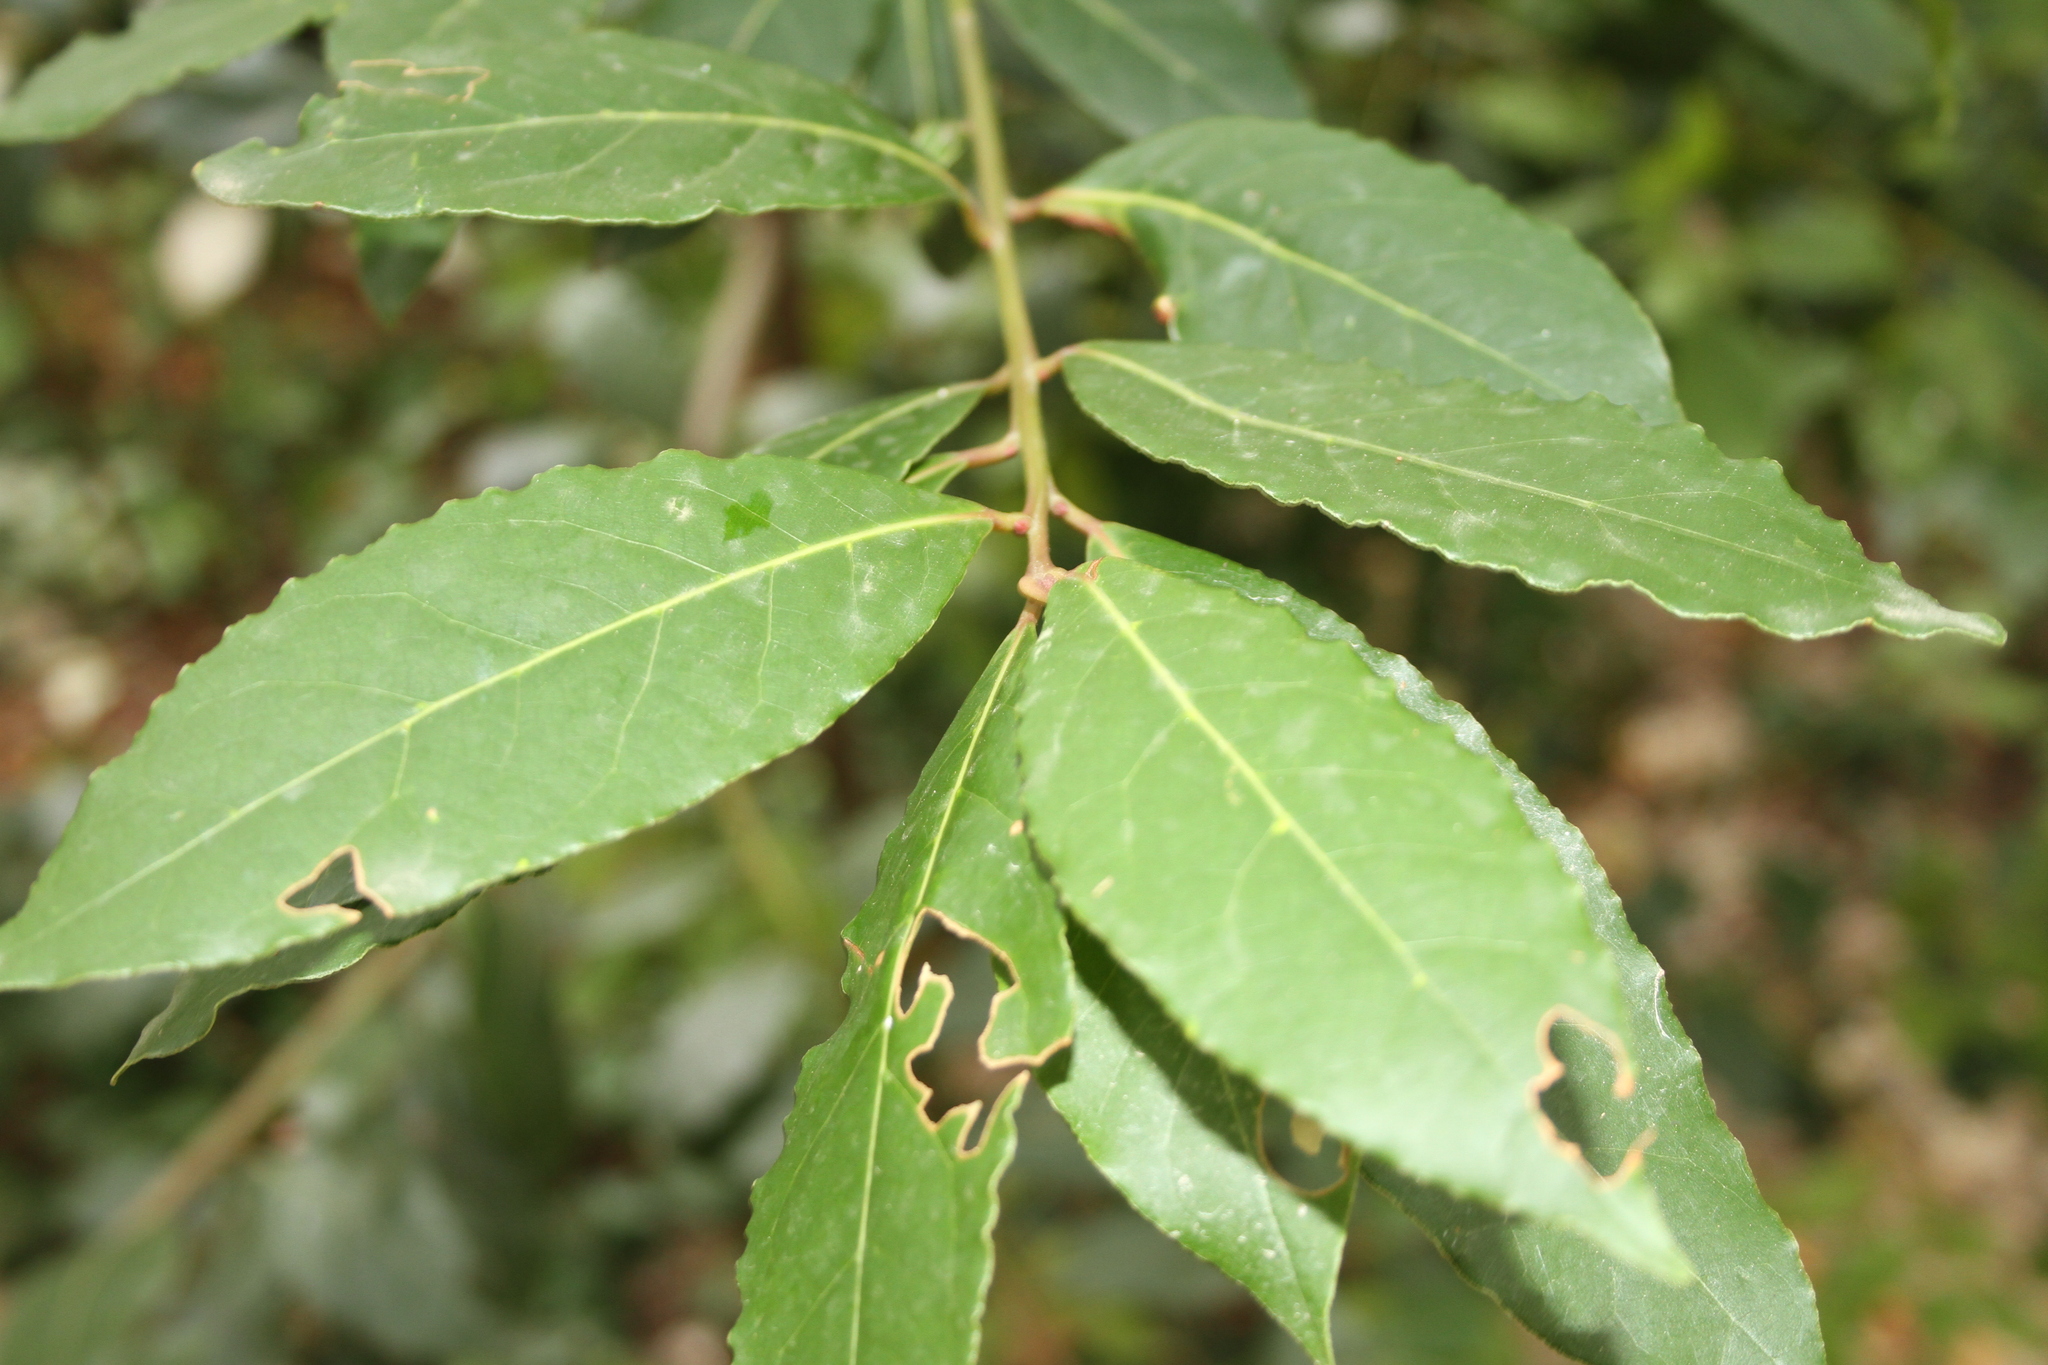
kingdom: Plantae
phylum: Tracheophyta
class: Magnoliopsida
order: Laurales
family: Lauraceae
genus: Laurus
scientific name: Laurus nobilis
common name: Bay
